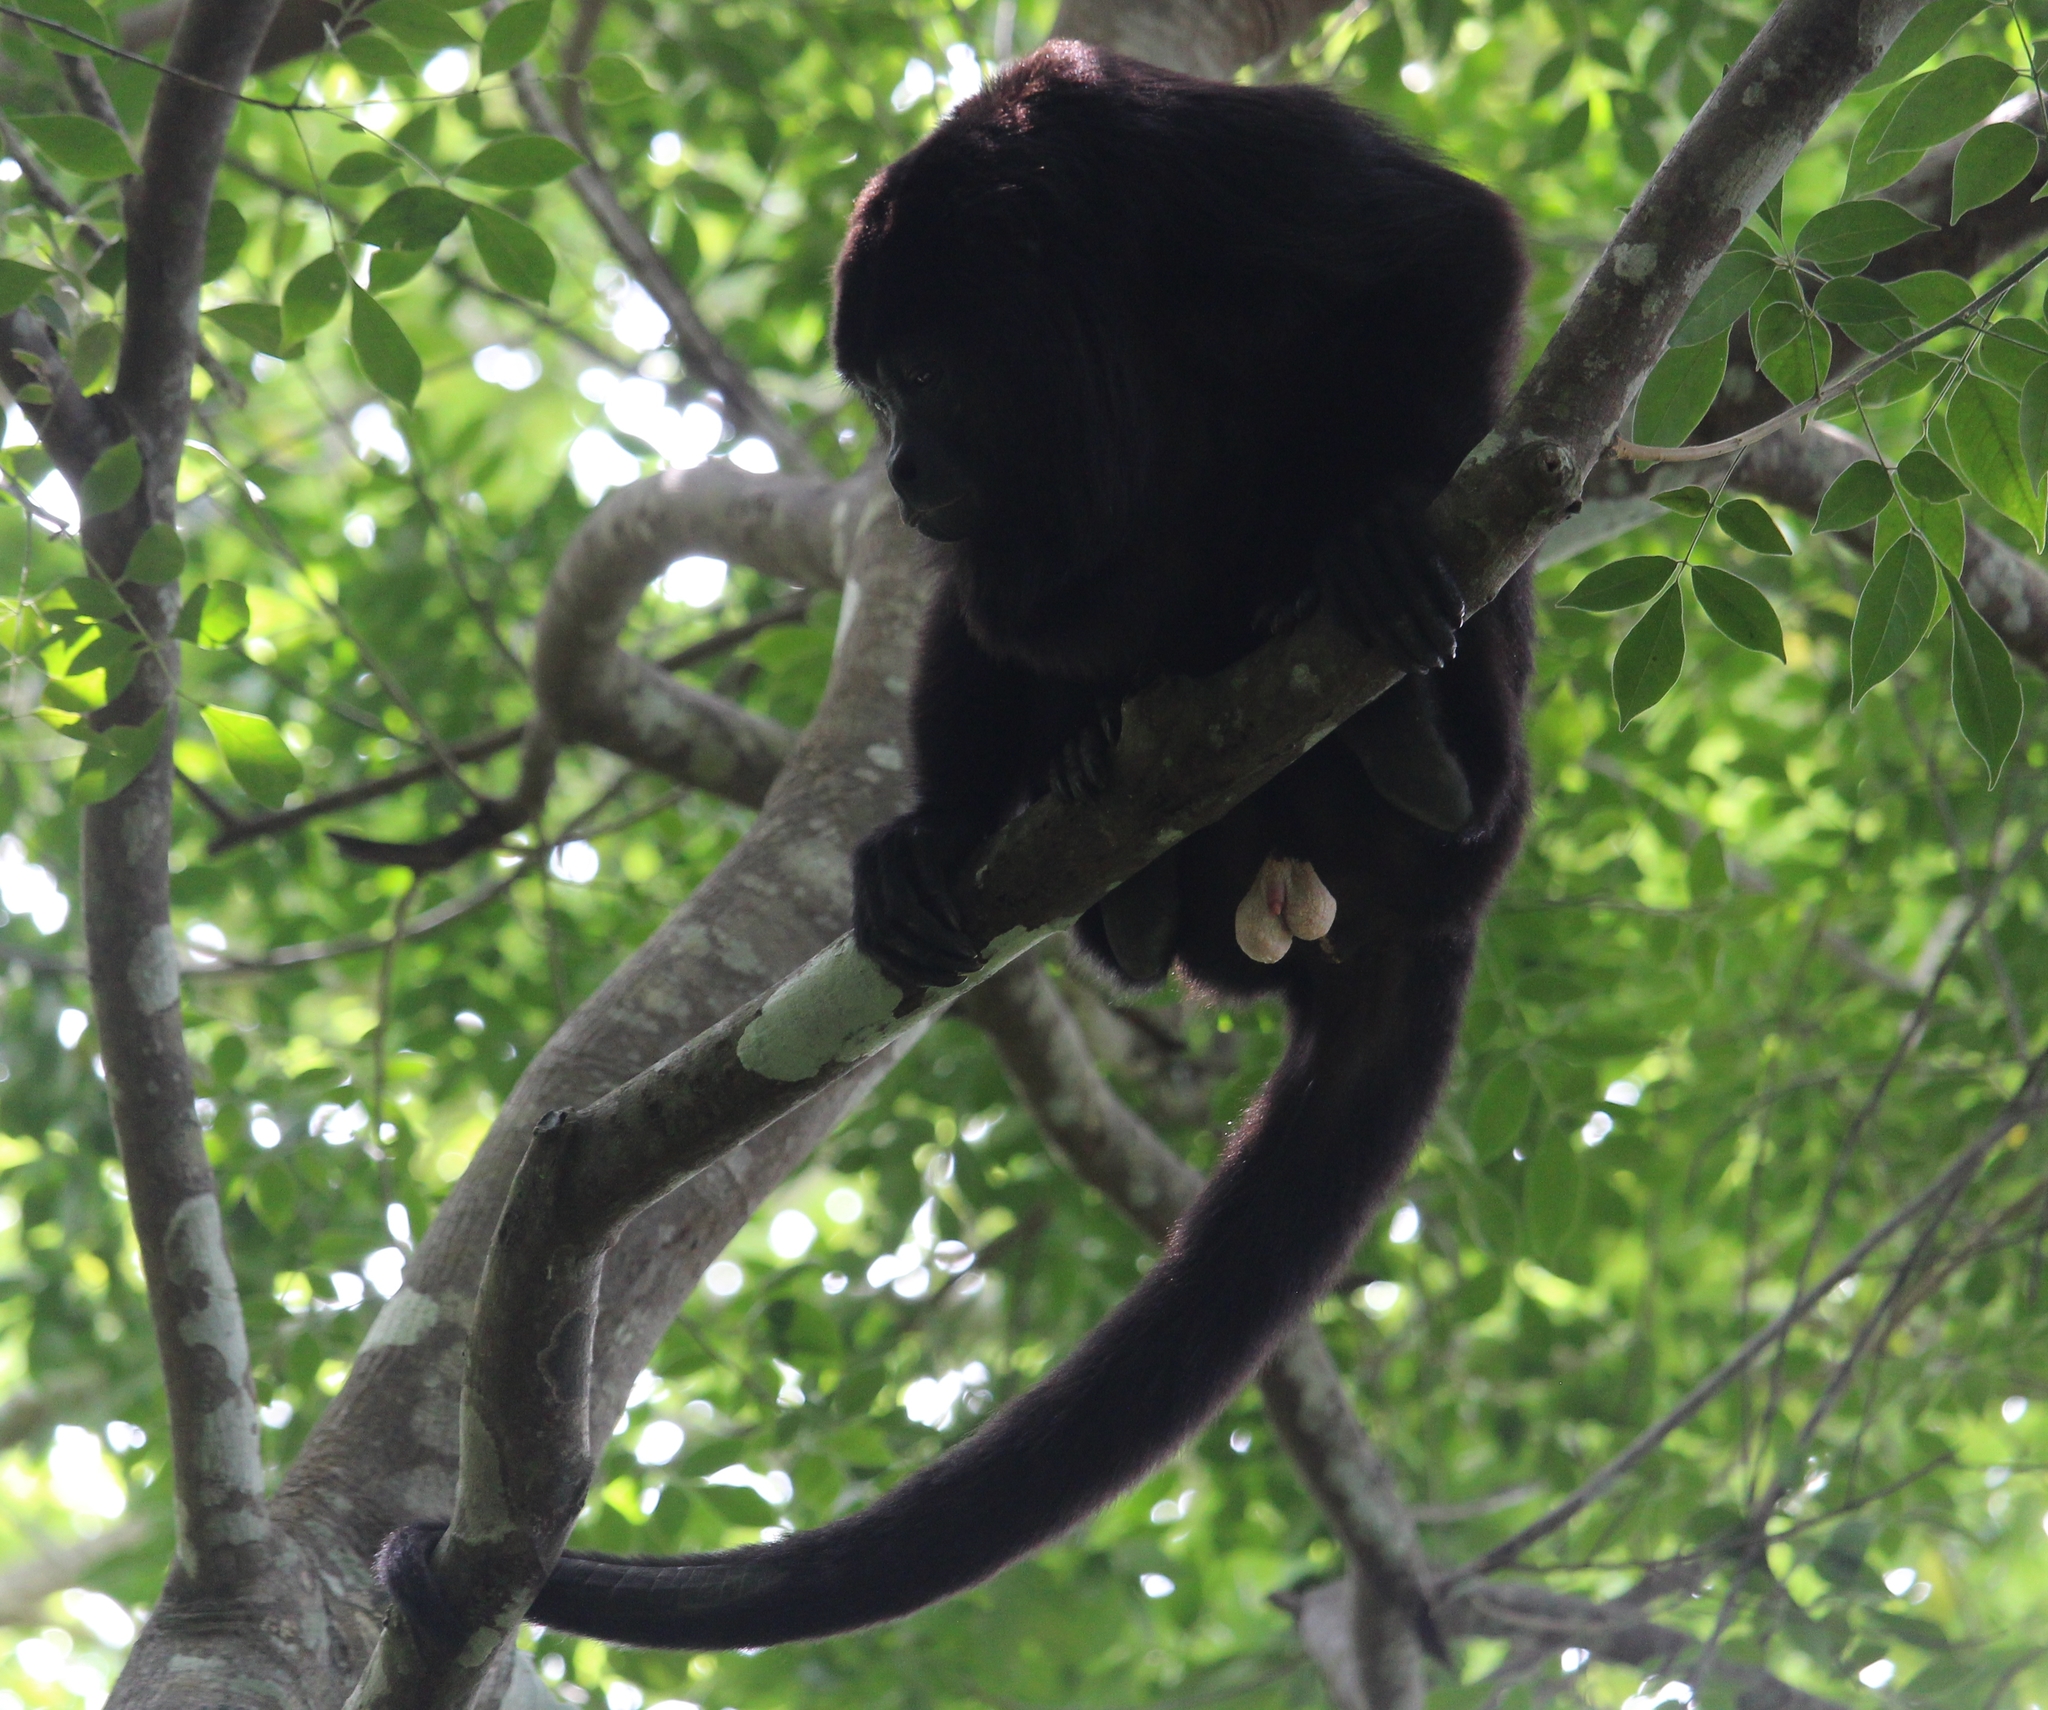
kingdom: Animalia
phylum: Chordata
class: Mammalia
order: Primates
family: Atelidae
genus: Alouatta
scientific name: Alouatta pigra
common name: Guatemalan black howler
